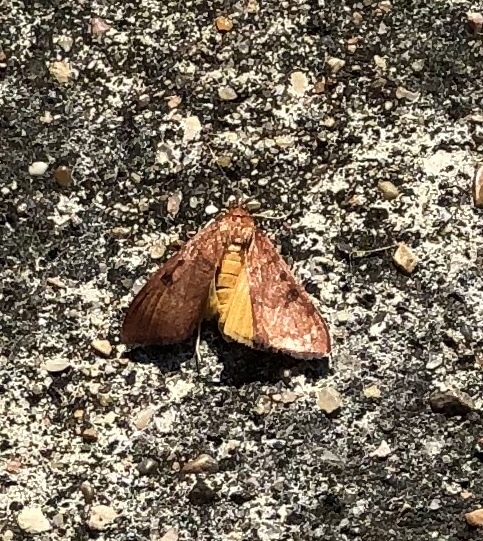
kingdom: Animalia
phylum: Arthropoda
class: Insecta
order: Lepidoptera
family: Crambidae
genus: Uresiphita
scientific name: Uresiphita reversalis
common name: Genista broom moth
